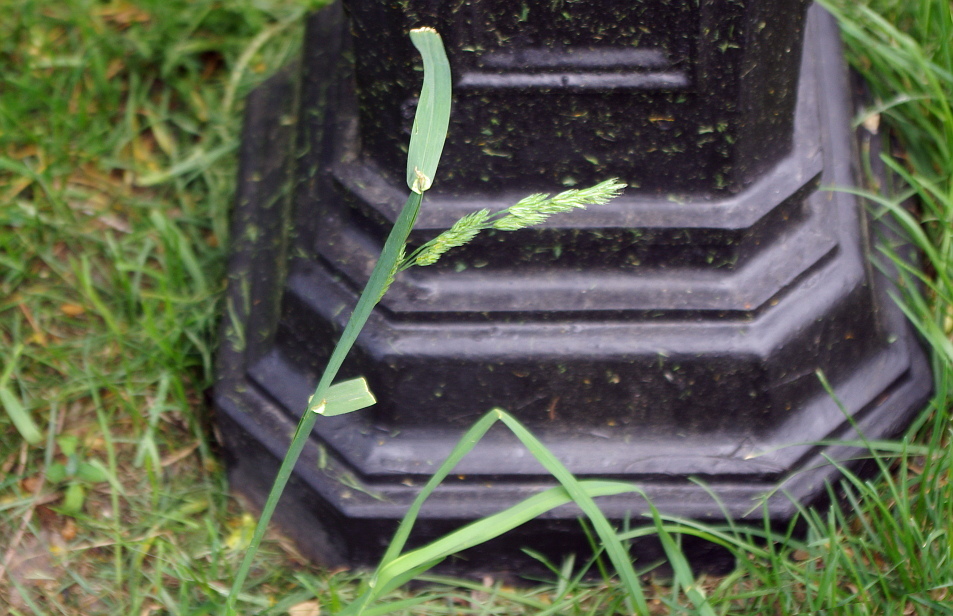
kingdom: Plantae
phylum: Tracheophyta
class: Liliopsida
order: Poales
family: Poaceae
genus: Dactylis
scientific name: Dactylis glomerata
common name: Orchardgrass
